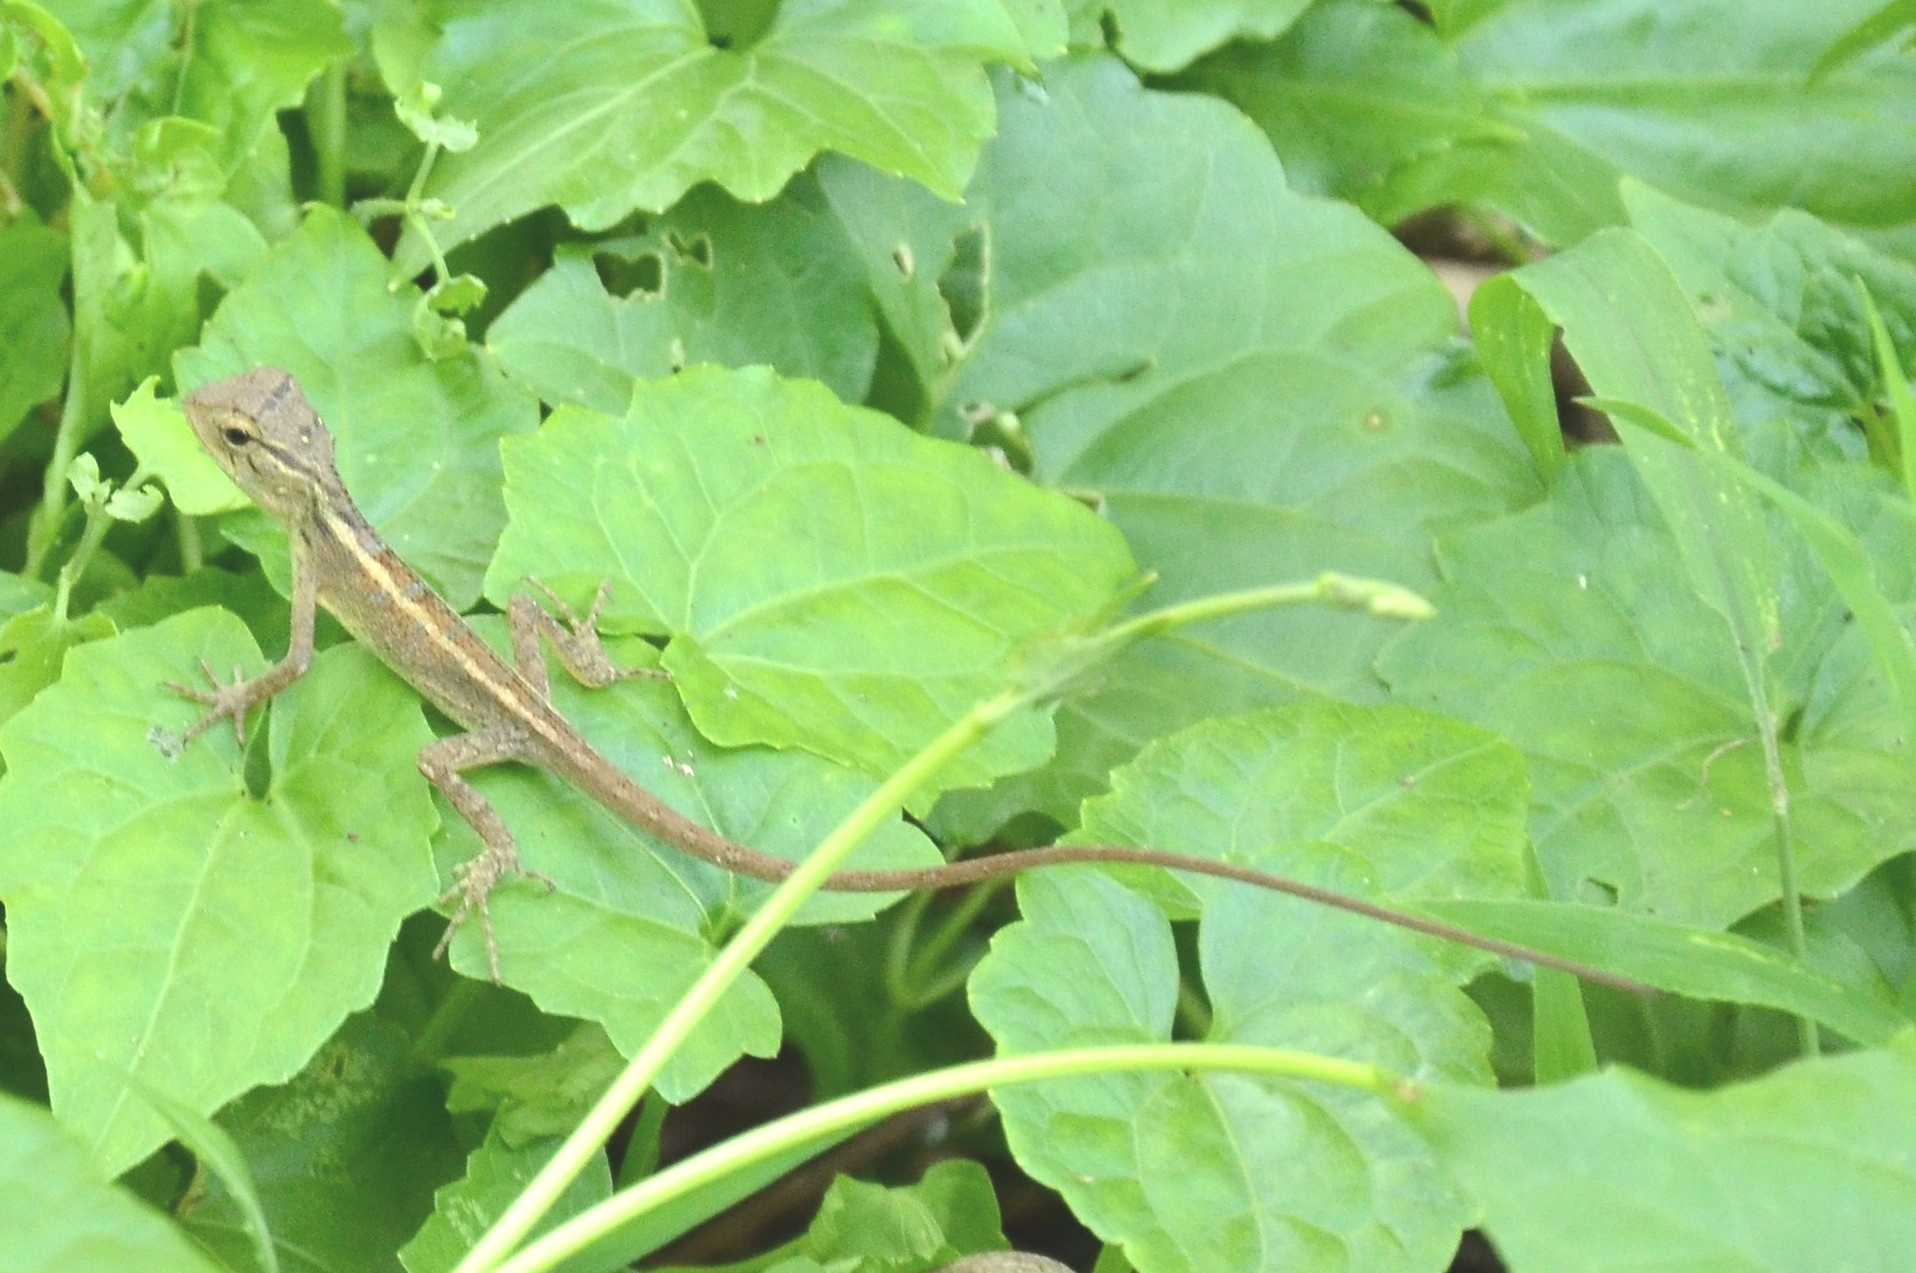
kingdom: Animalia
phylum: Chordata
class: Squamata
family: Agamidae
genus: Calotes
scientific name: Calotes versicolor
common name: Oriental garden lizard
